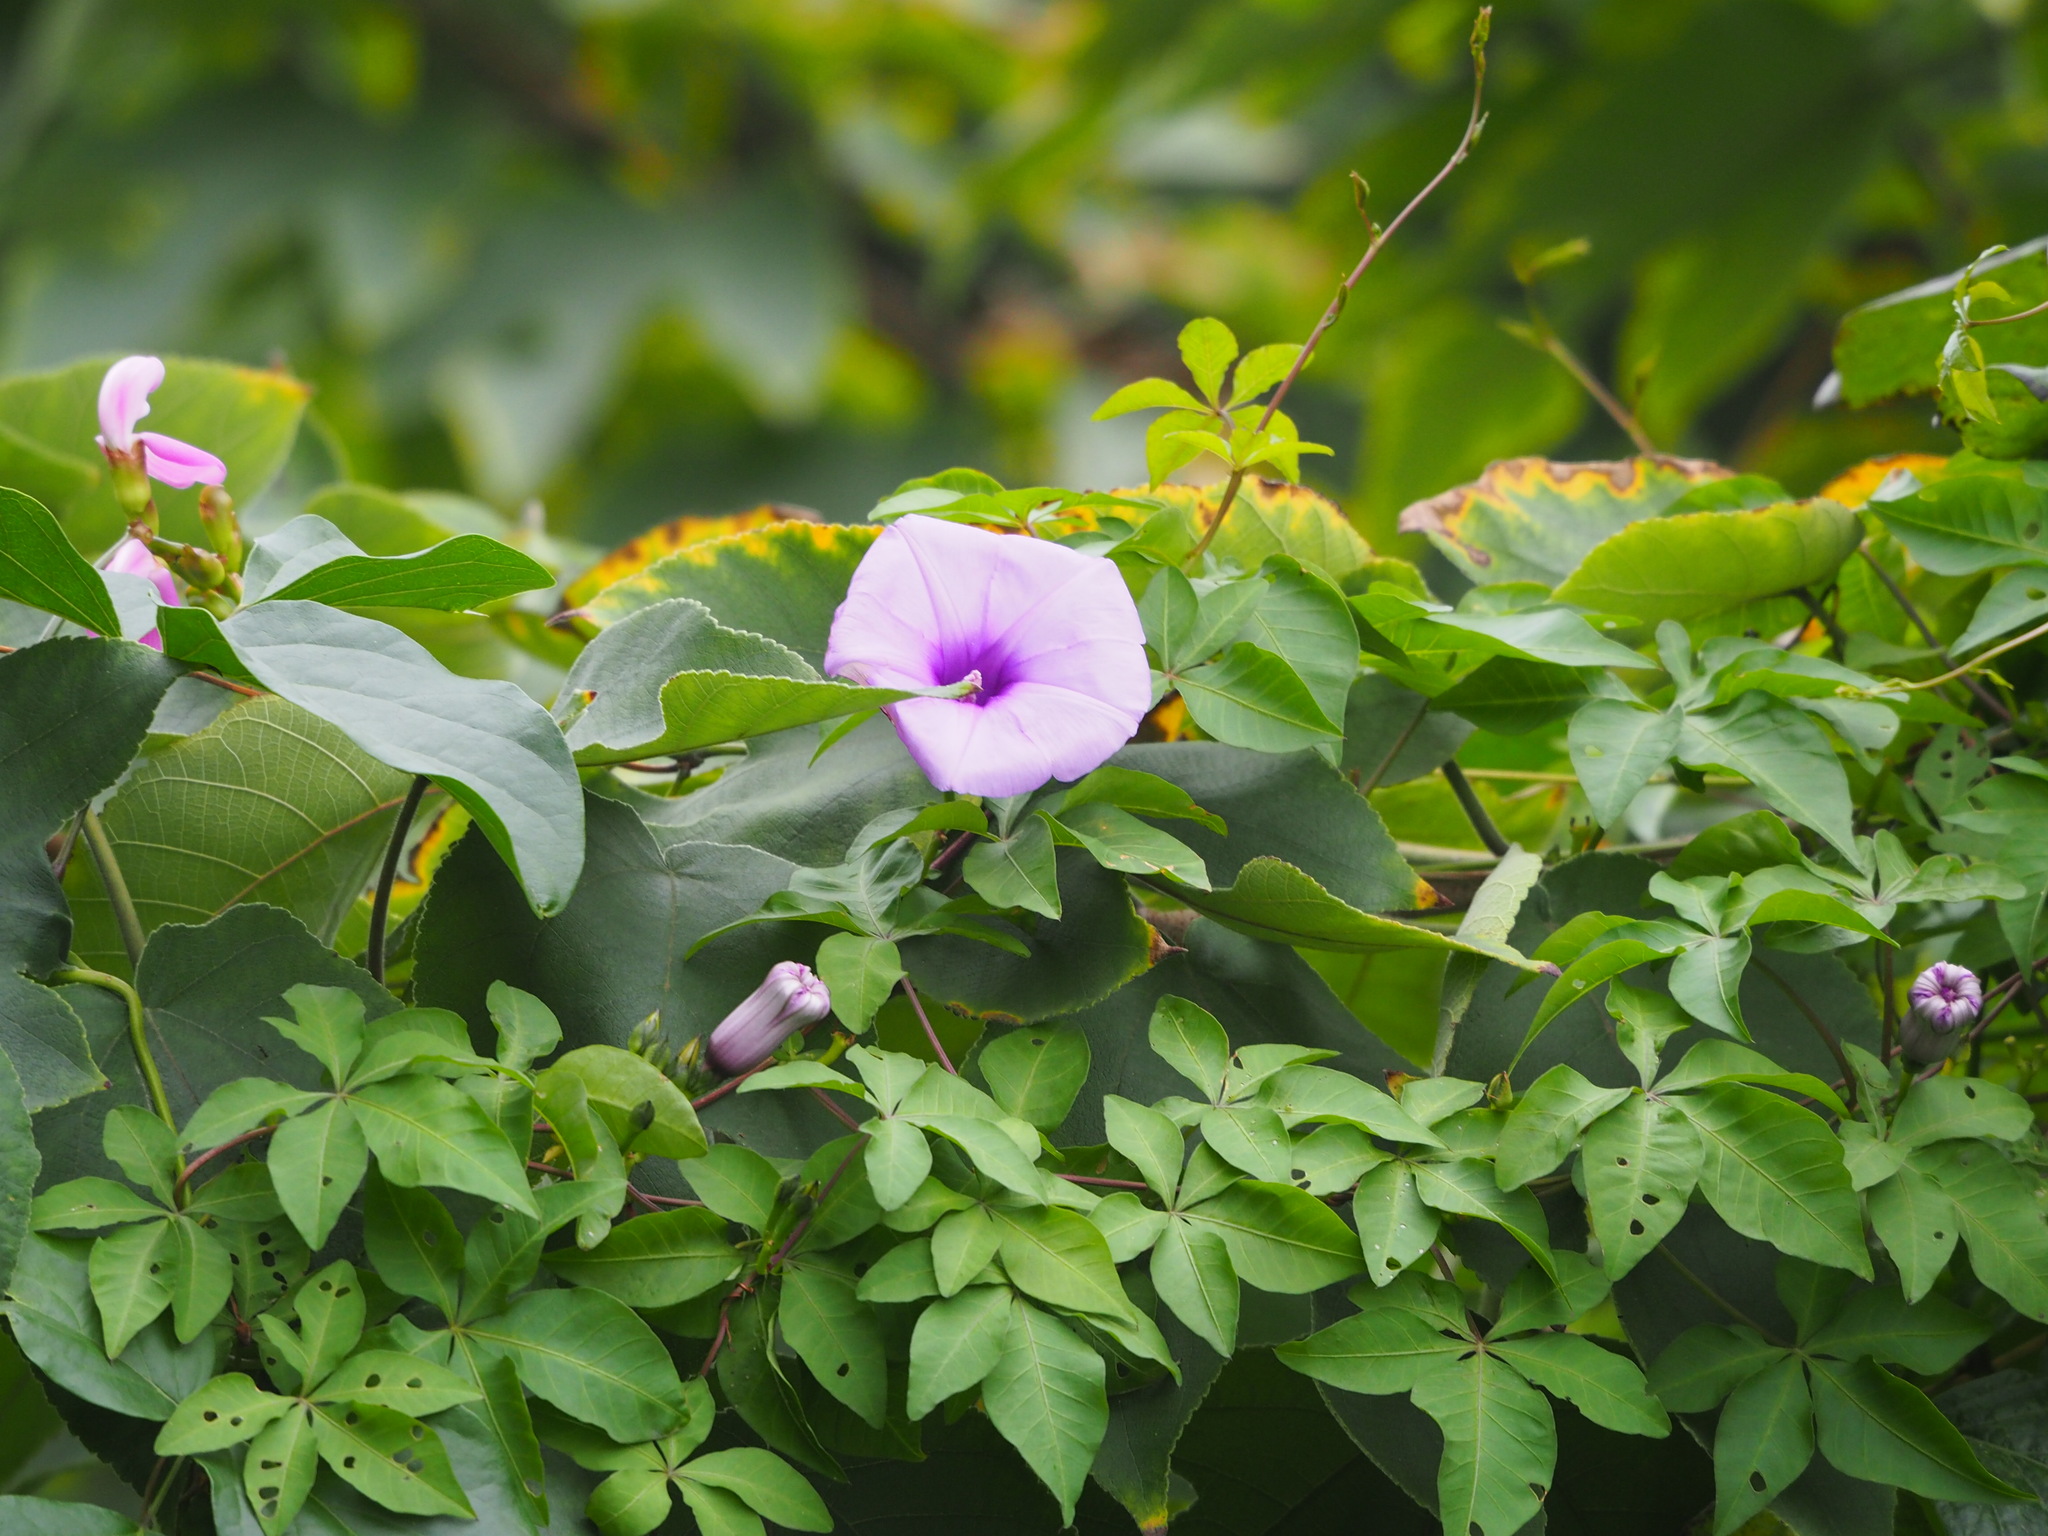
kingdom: Plantae
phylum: Tracheophyta
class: Magnoliopsida
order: Solanales
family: Convolvulaceae
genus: Ipomoea
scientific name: Ipomoea cairica
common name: Mile a minute vine
